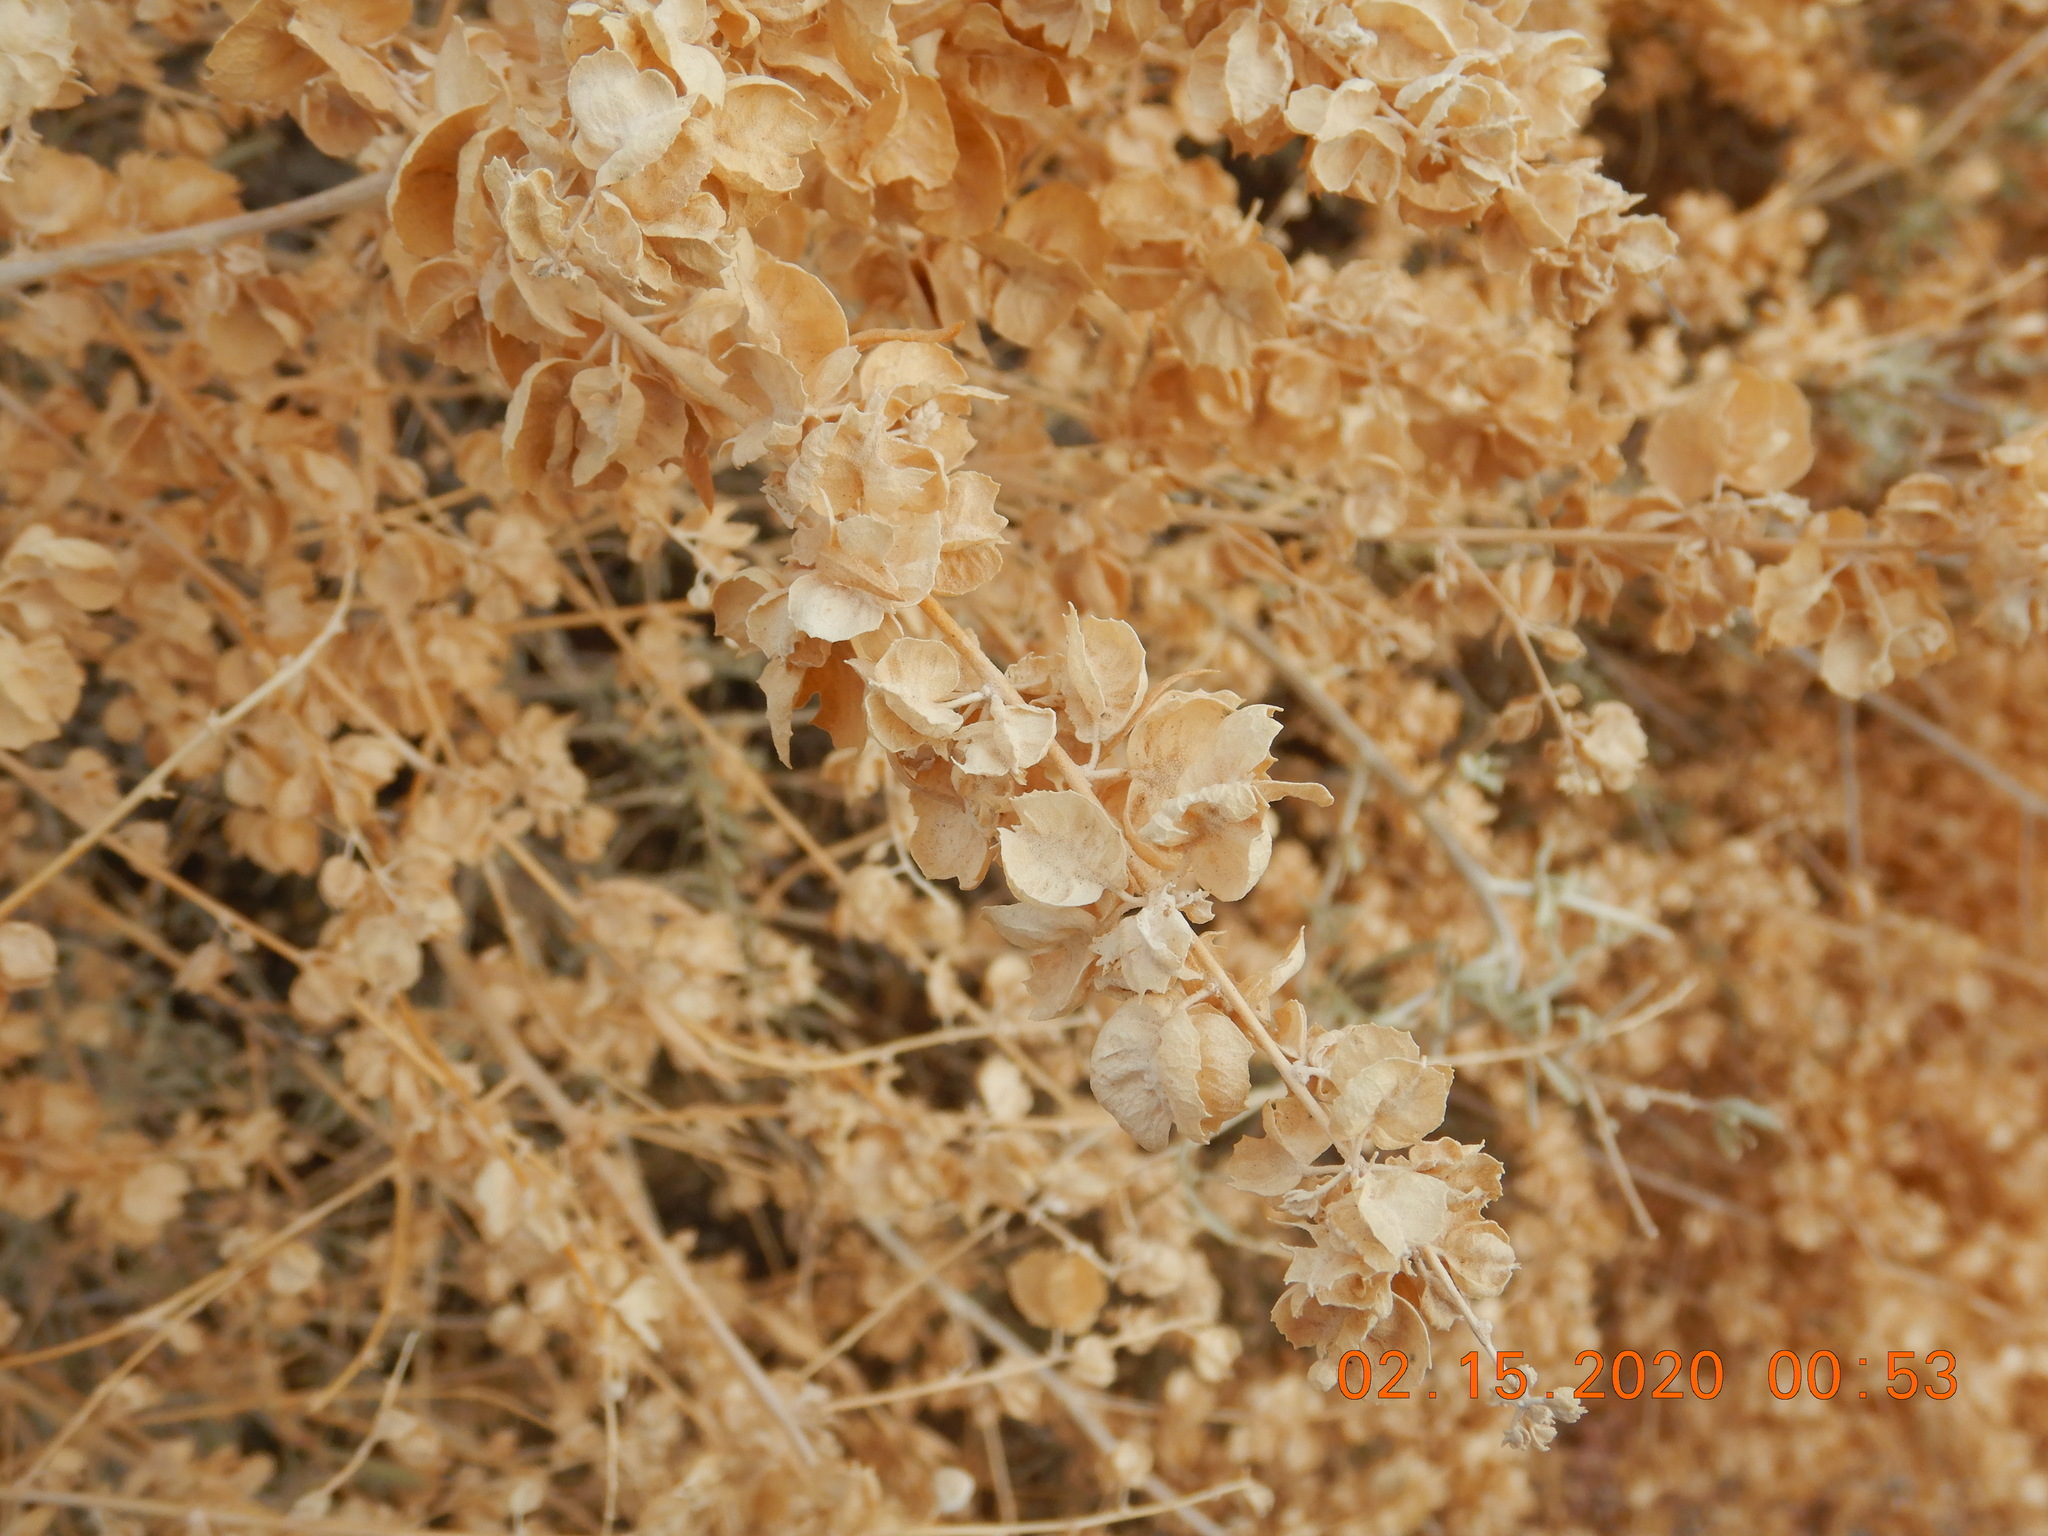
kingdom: Plantae
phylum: Tracheophyta
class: Magnoliopsida
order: Caryophyllales
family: Amaranthaceae
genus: Atriplex
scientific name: Atriplex canescens
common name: Four-wing saltbush
